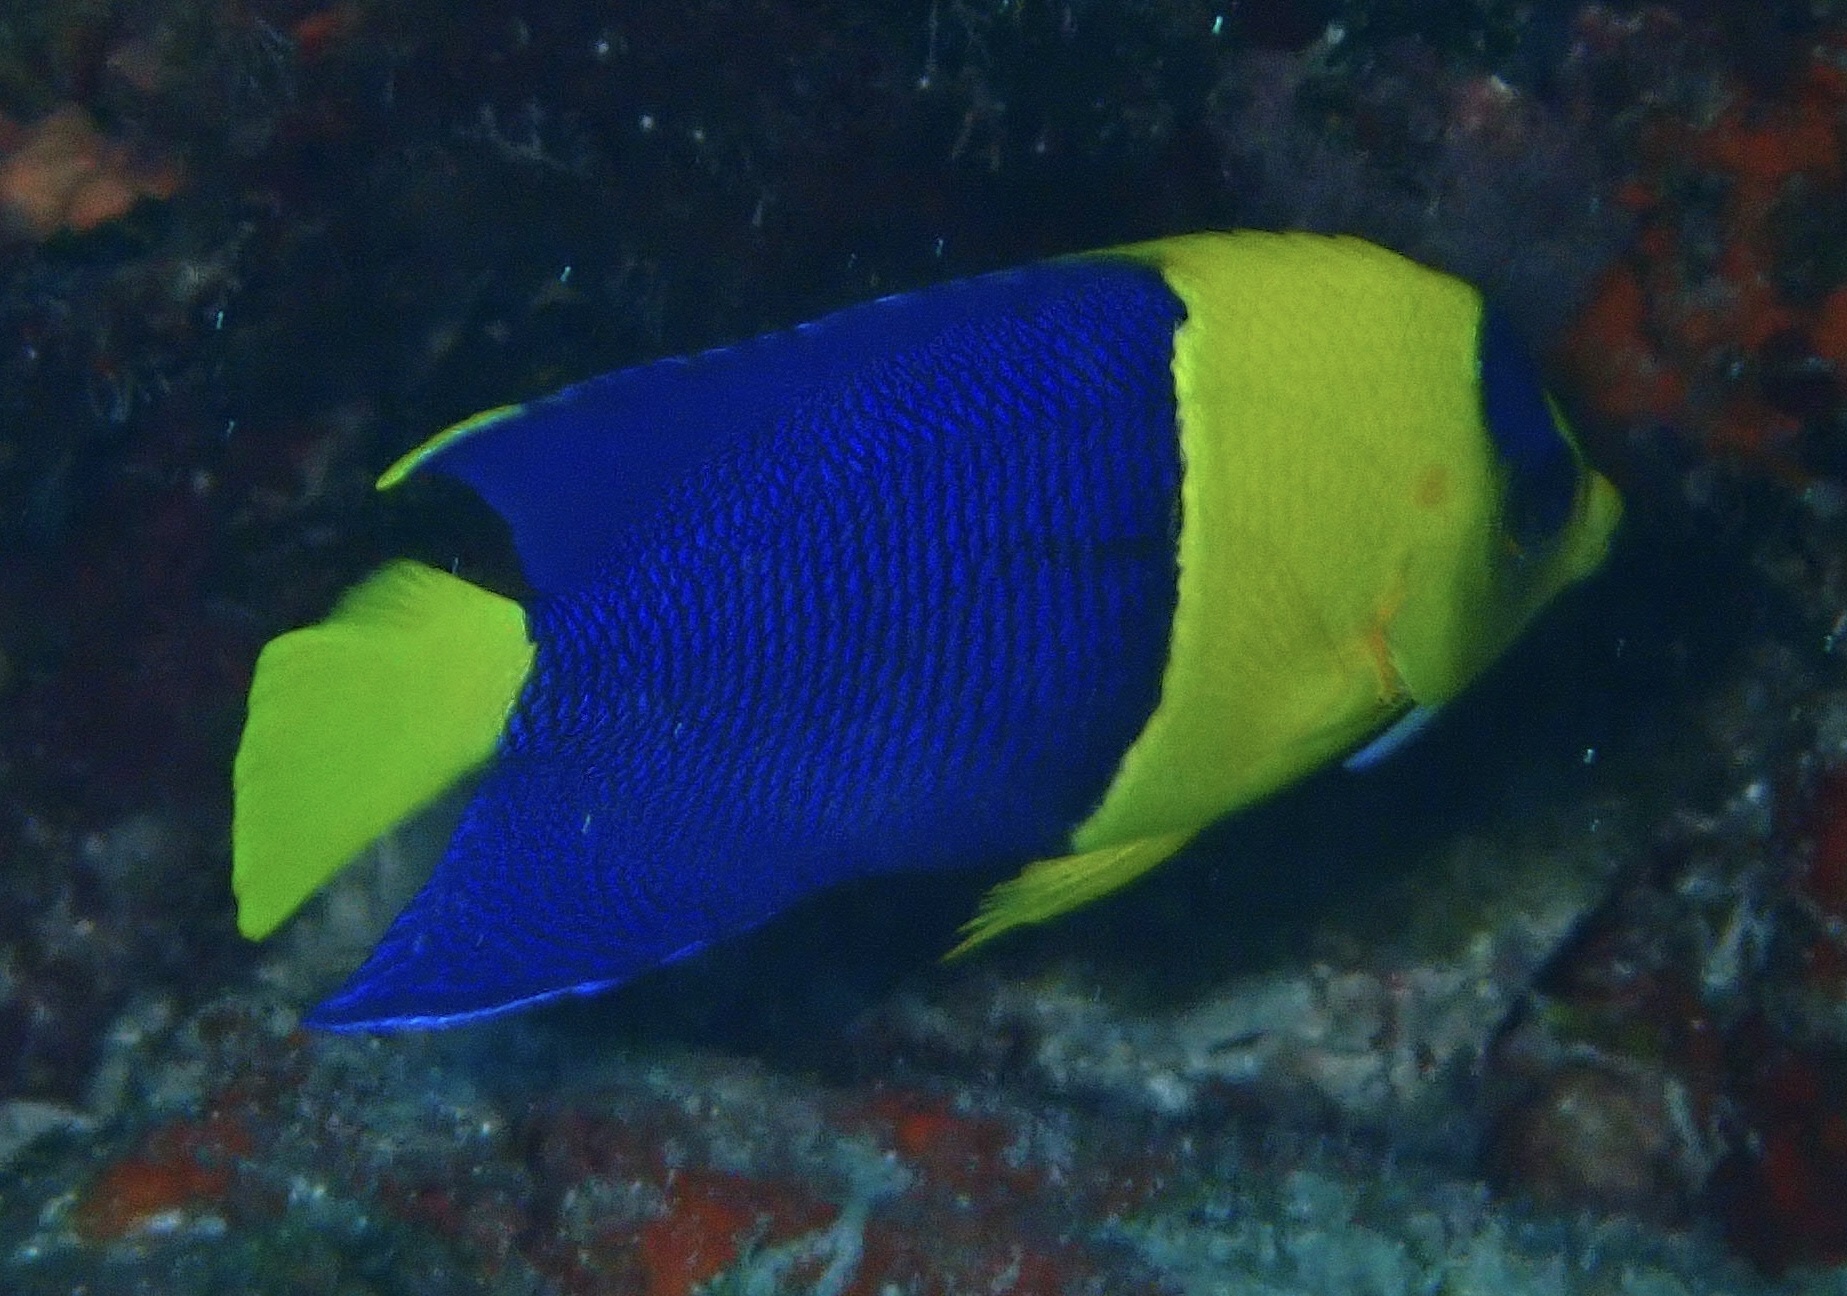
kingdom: Animalia
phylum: Chordata
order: Perciformes
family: Pomacanthidae
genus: Centropyge
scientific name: Centropyge bicolor
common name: Bicolor angelfish
